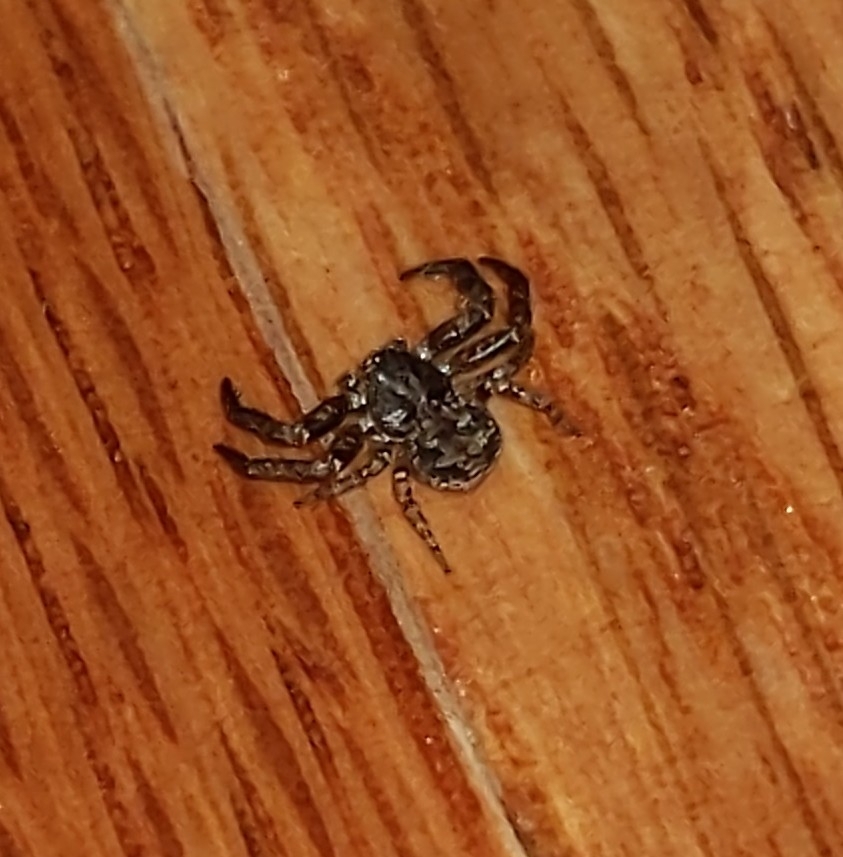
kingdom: Animalia
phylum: Arthropoda
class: Arachnida
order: Araneae
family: Thomisidae
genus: Bassaniana
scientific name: Bassaniana
